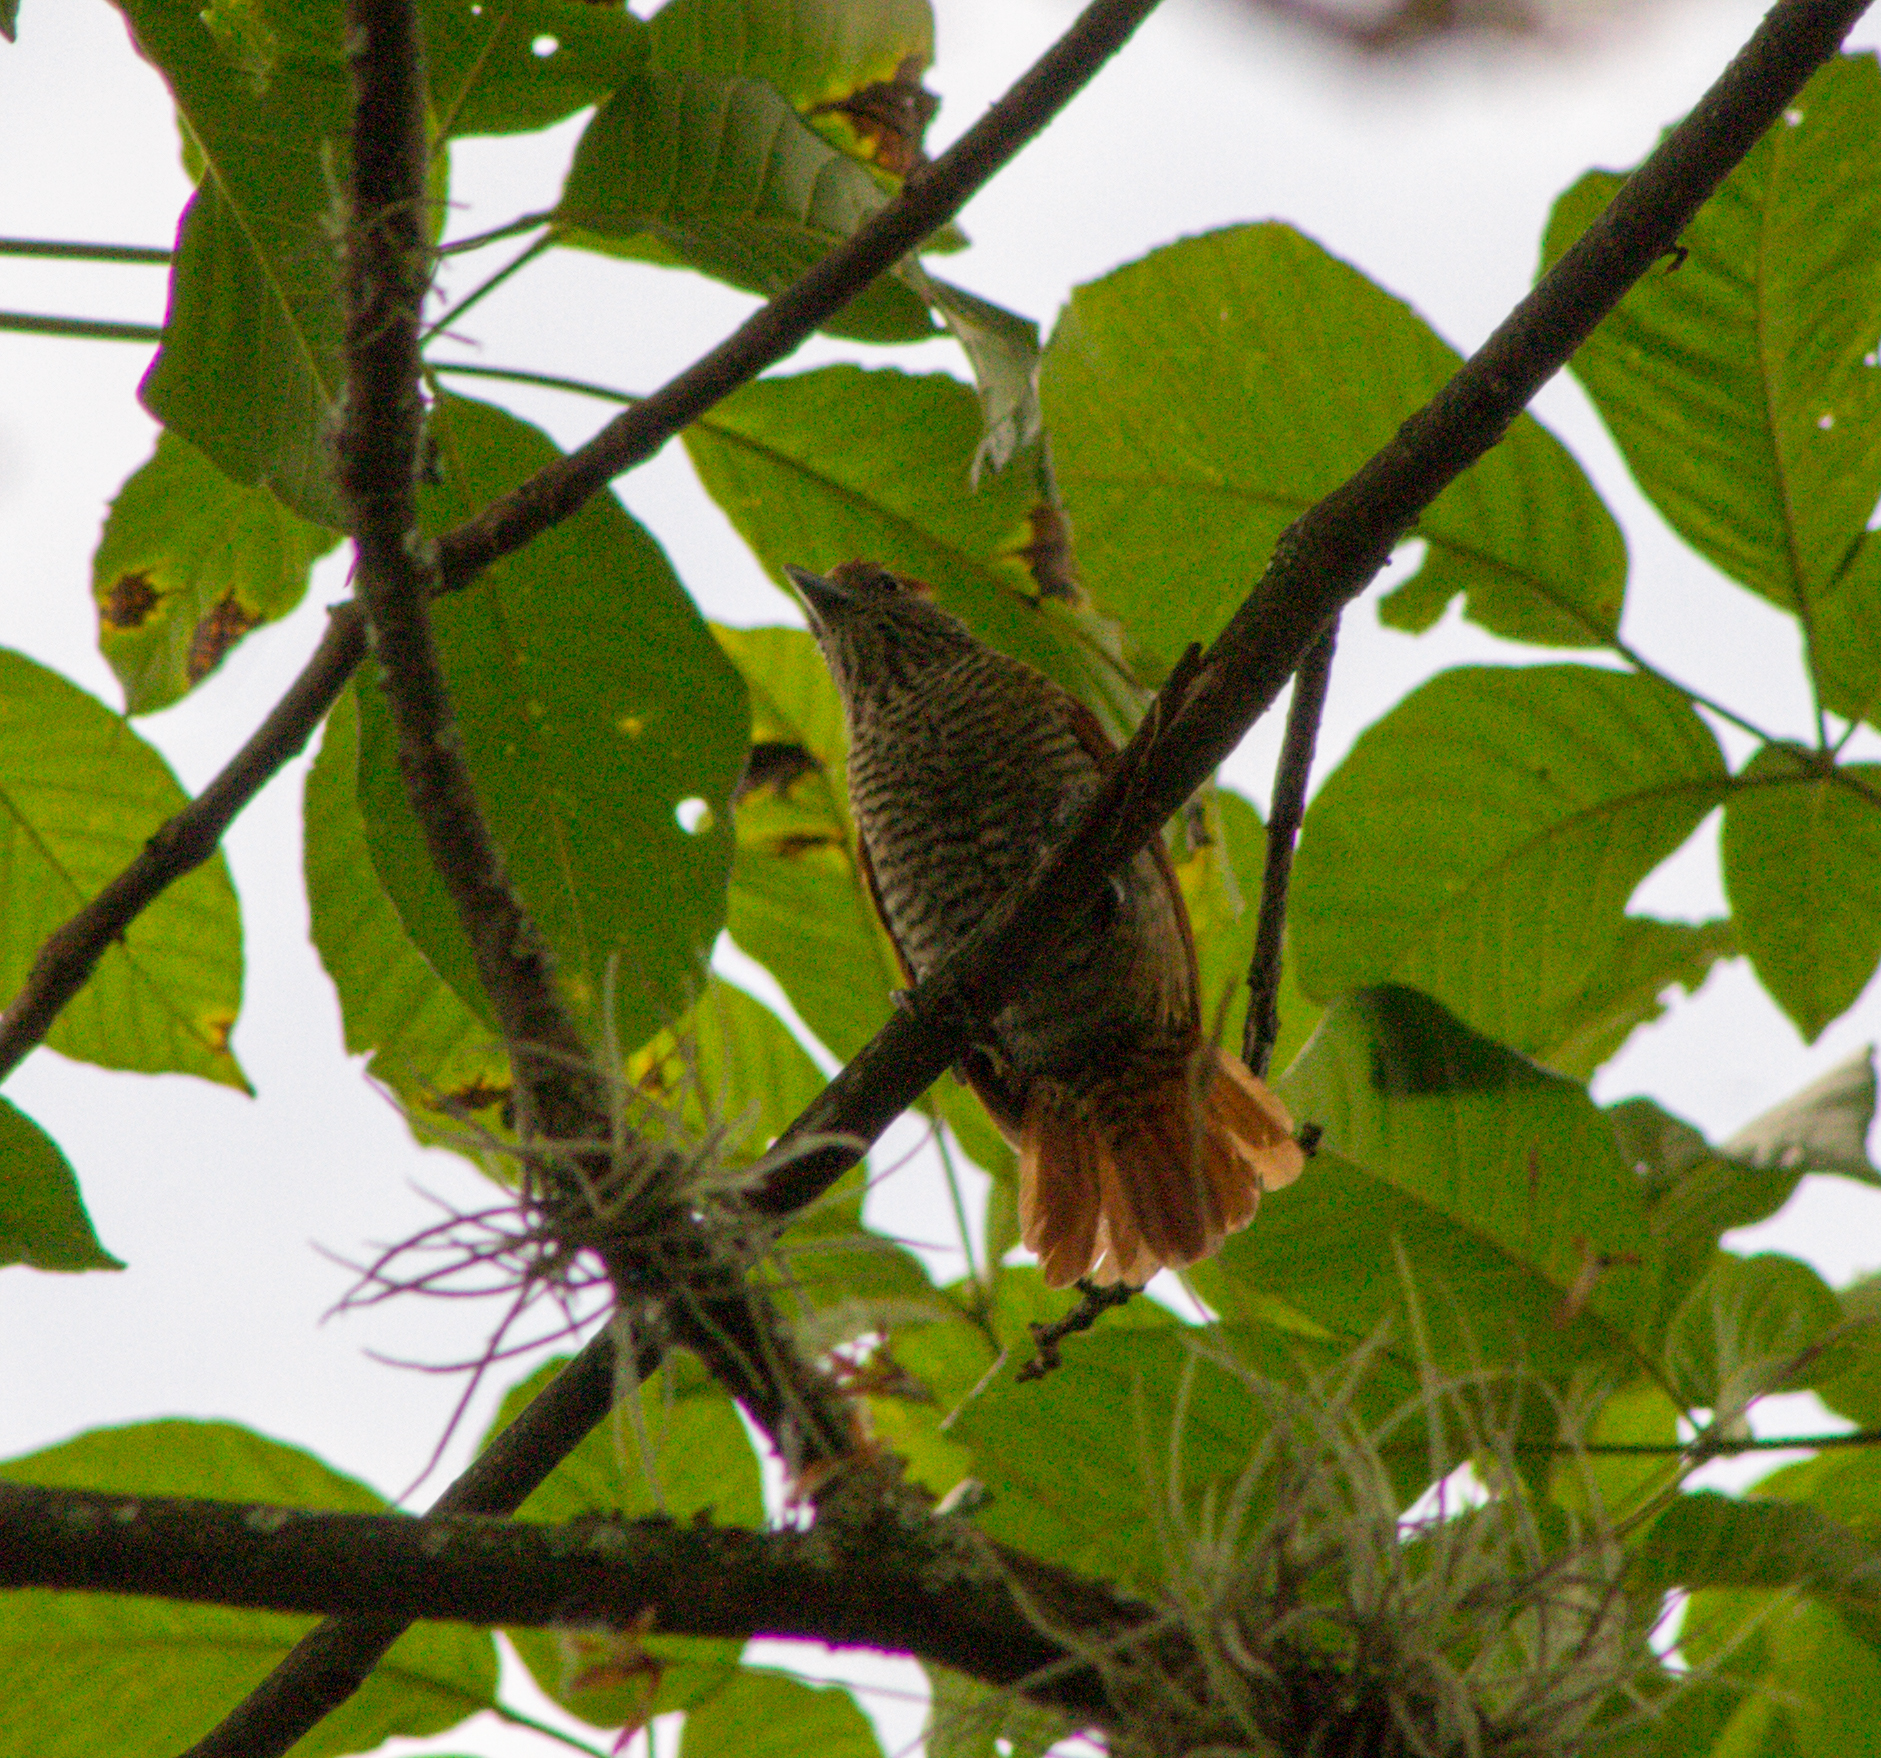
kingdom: Animalia
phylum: Chordata
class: Aves
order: Passeriformes
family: Thamnophilidae
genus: Thamnophilus
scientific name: Thamnophilus multistriatus
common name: Bar-crested antshrike
